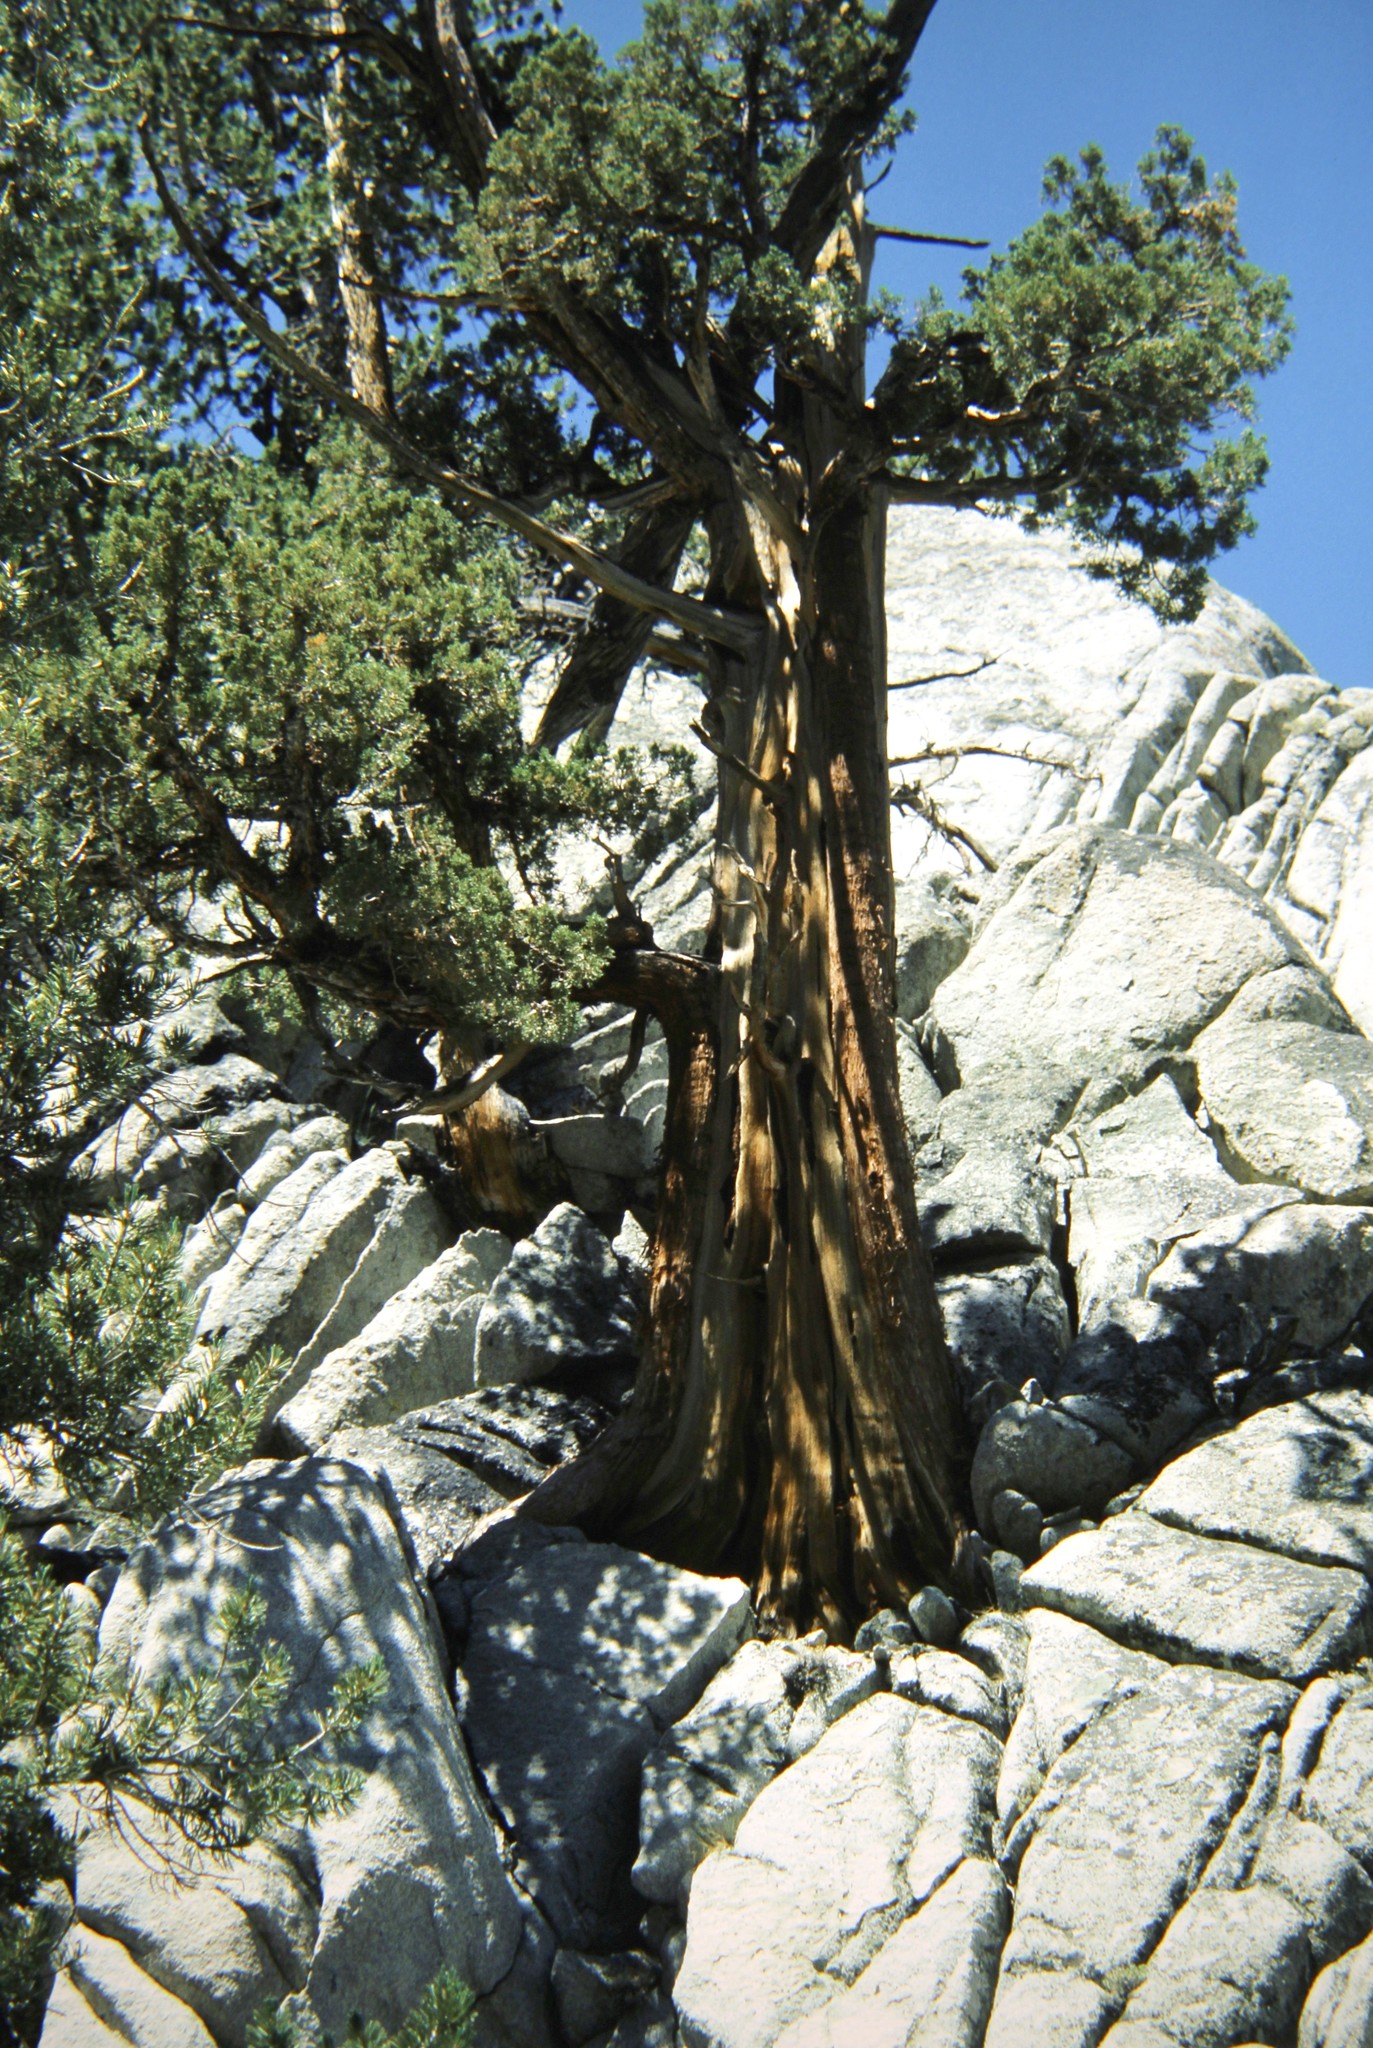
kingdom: Plantae
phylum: Tracheophyta
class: Pinopsida
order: Pinales
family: Cupressaceae
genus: Juniperus
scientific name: Juniperus occidentalis
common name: Western juniper
